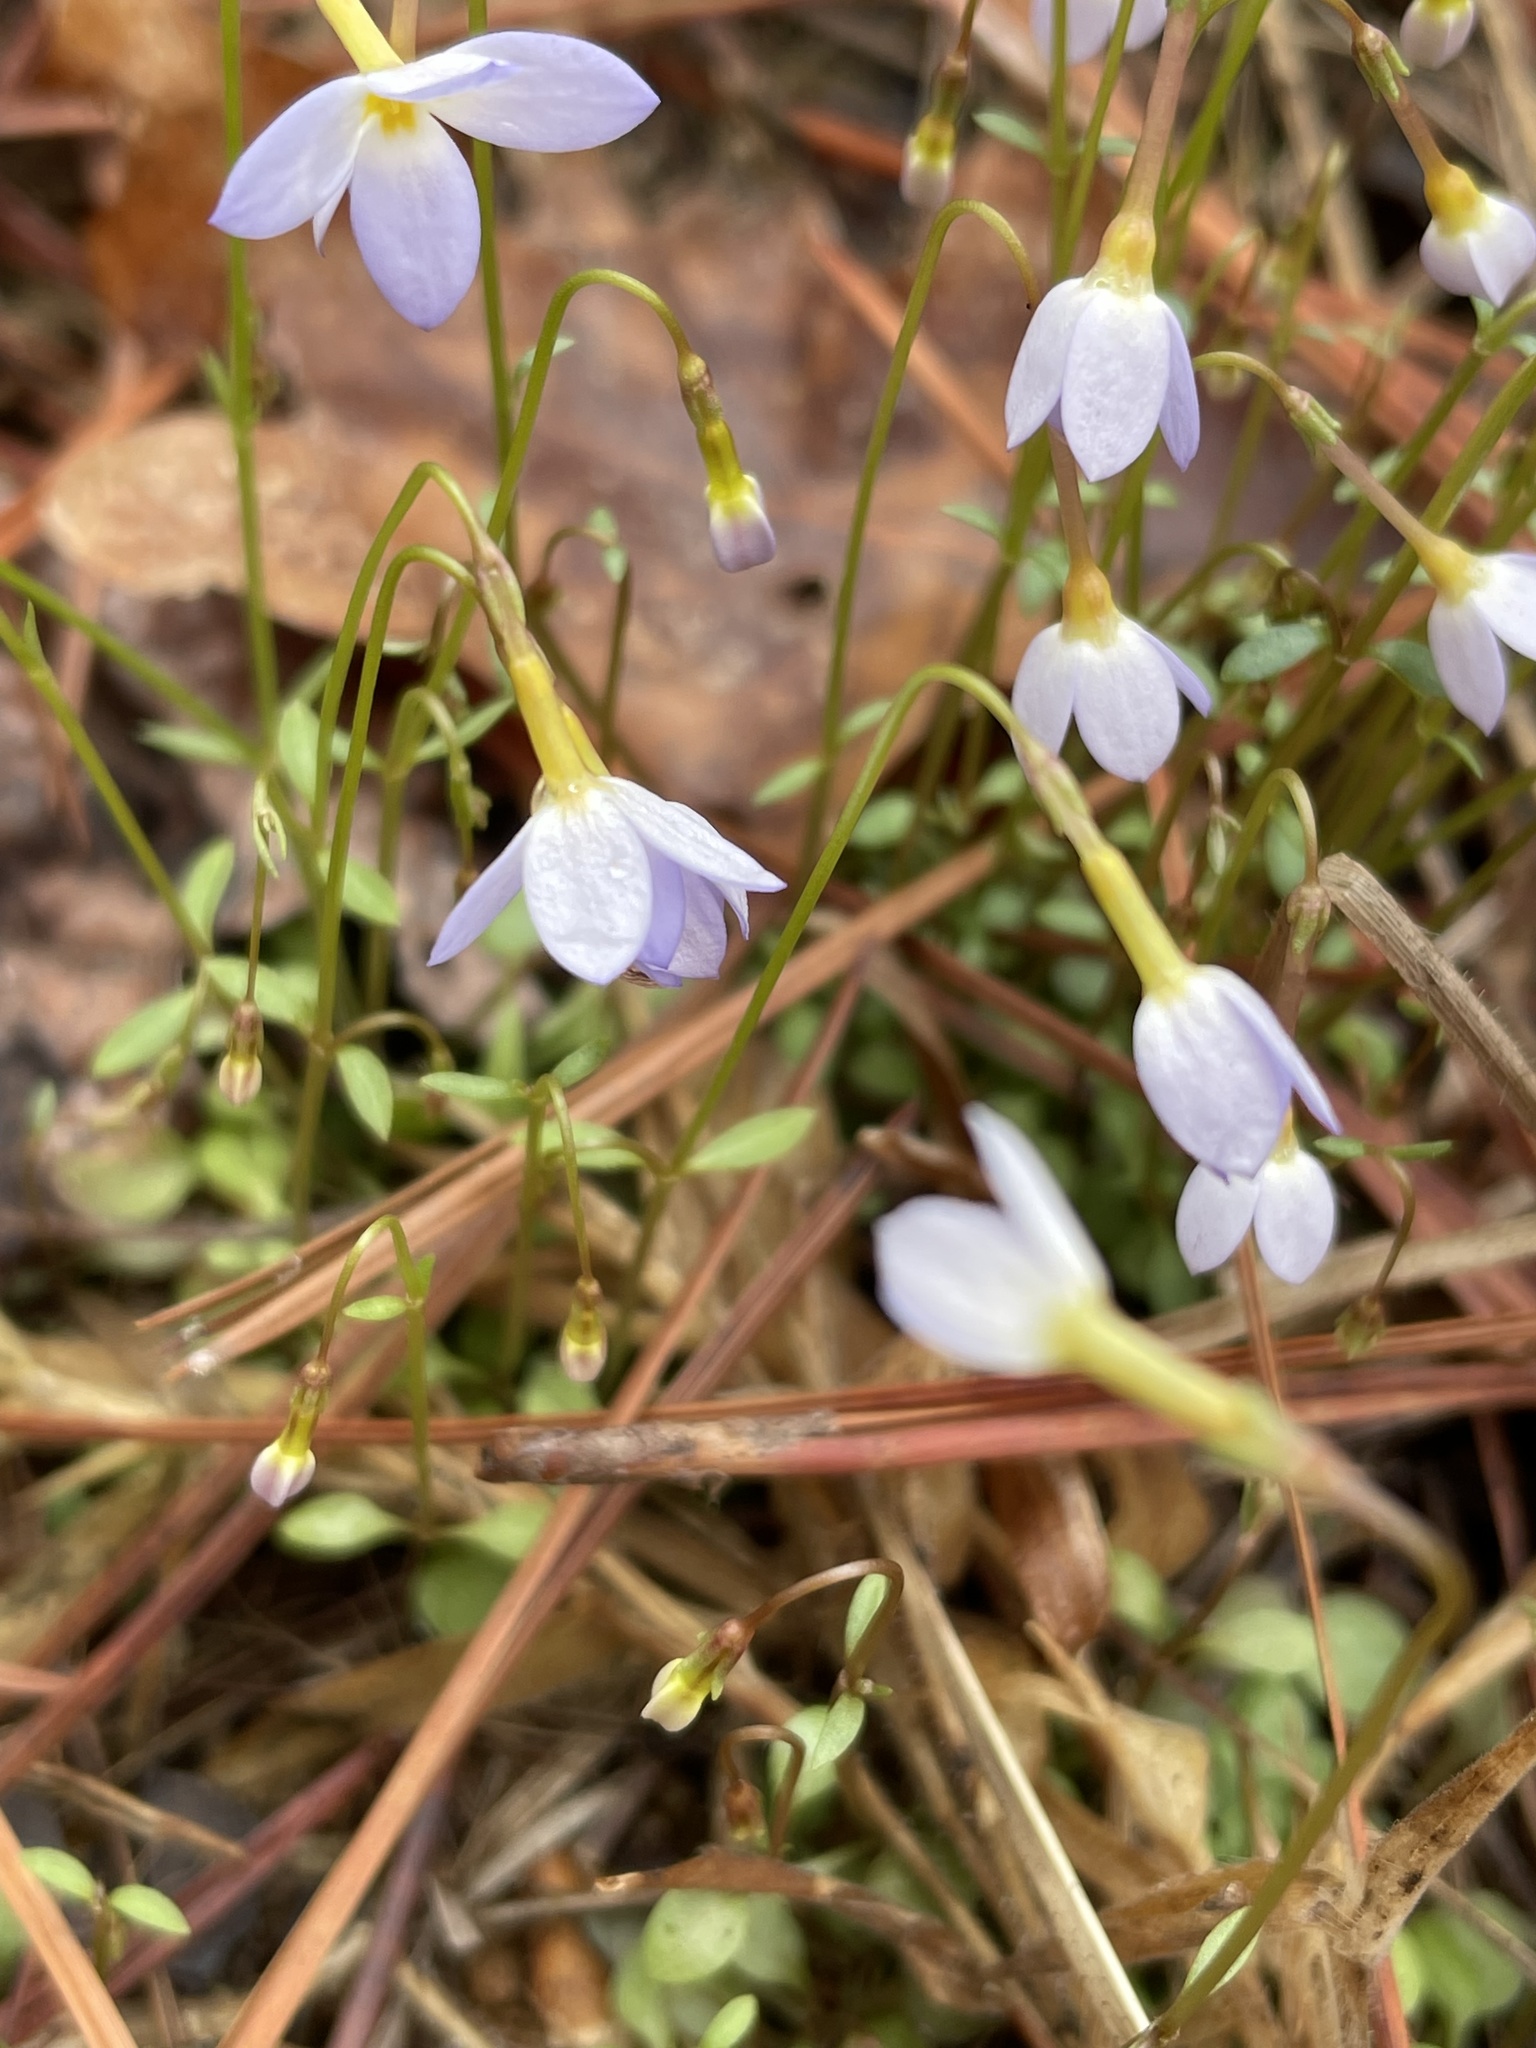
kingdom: Plantae
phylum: Tracheophyta
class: Magnoliopsida
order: Gentianales
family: Rubiaceae
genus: Houstonia
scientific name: Houstonia caerulea
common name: Bluets
